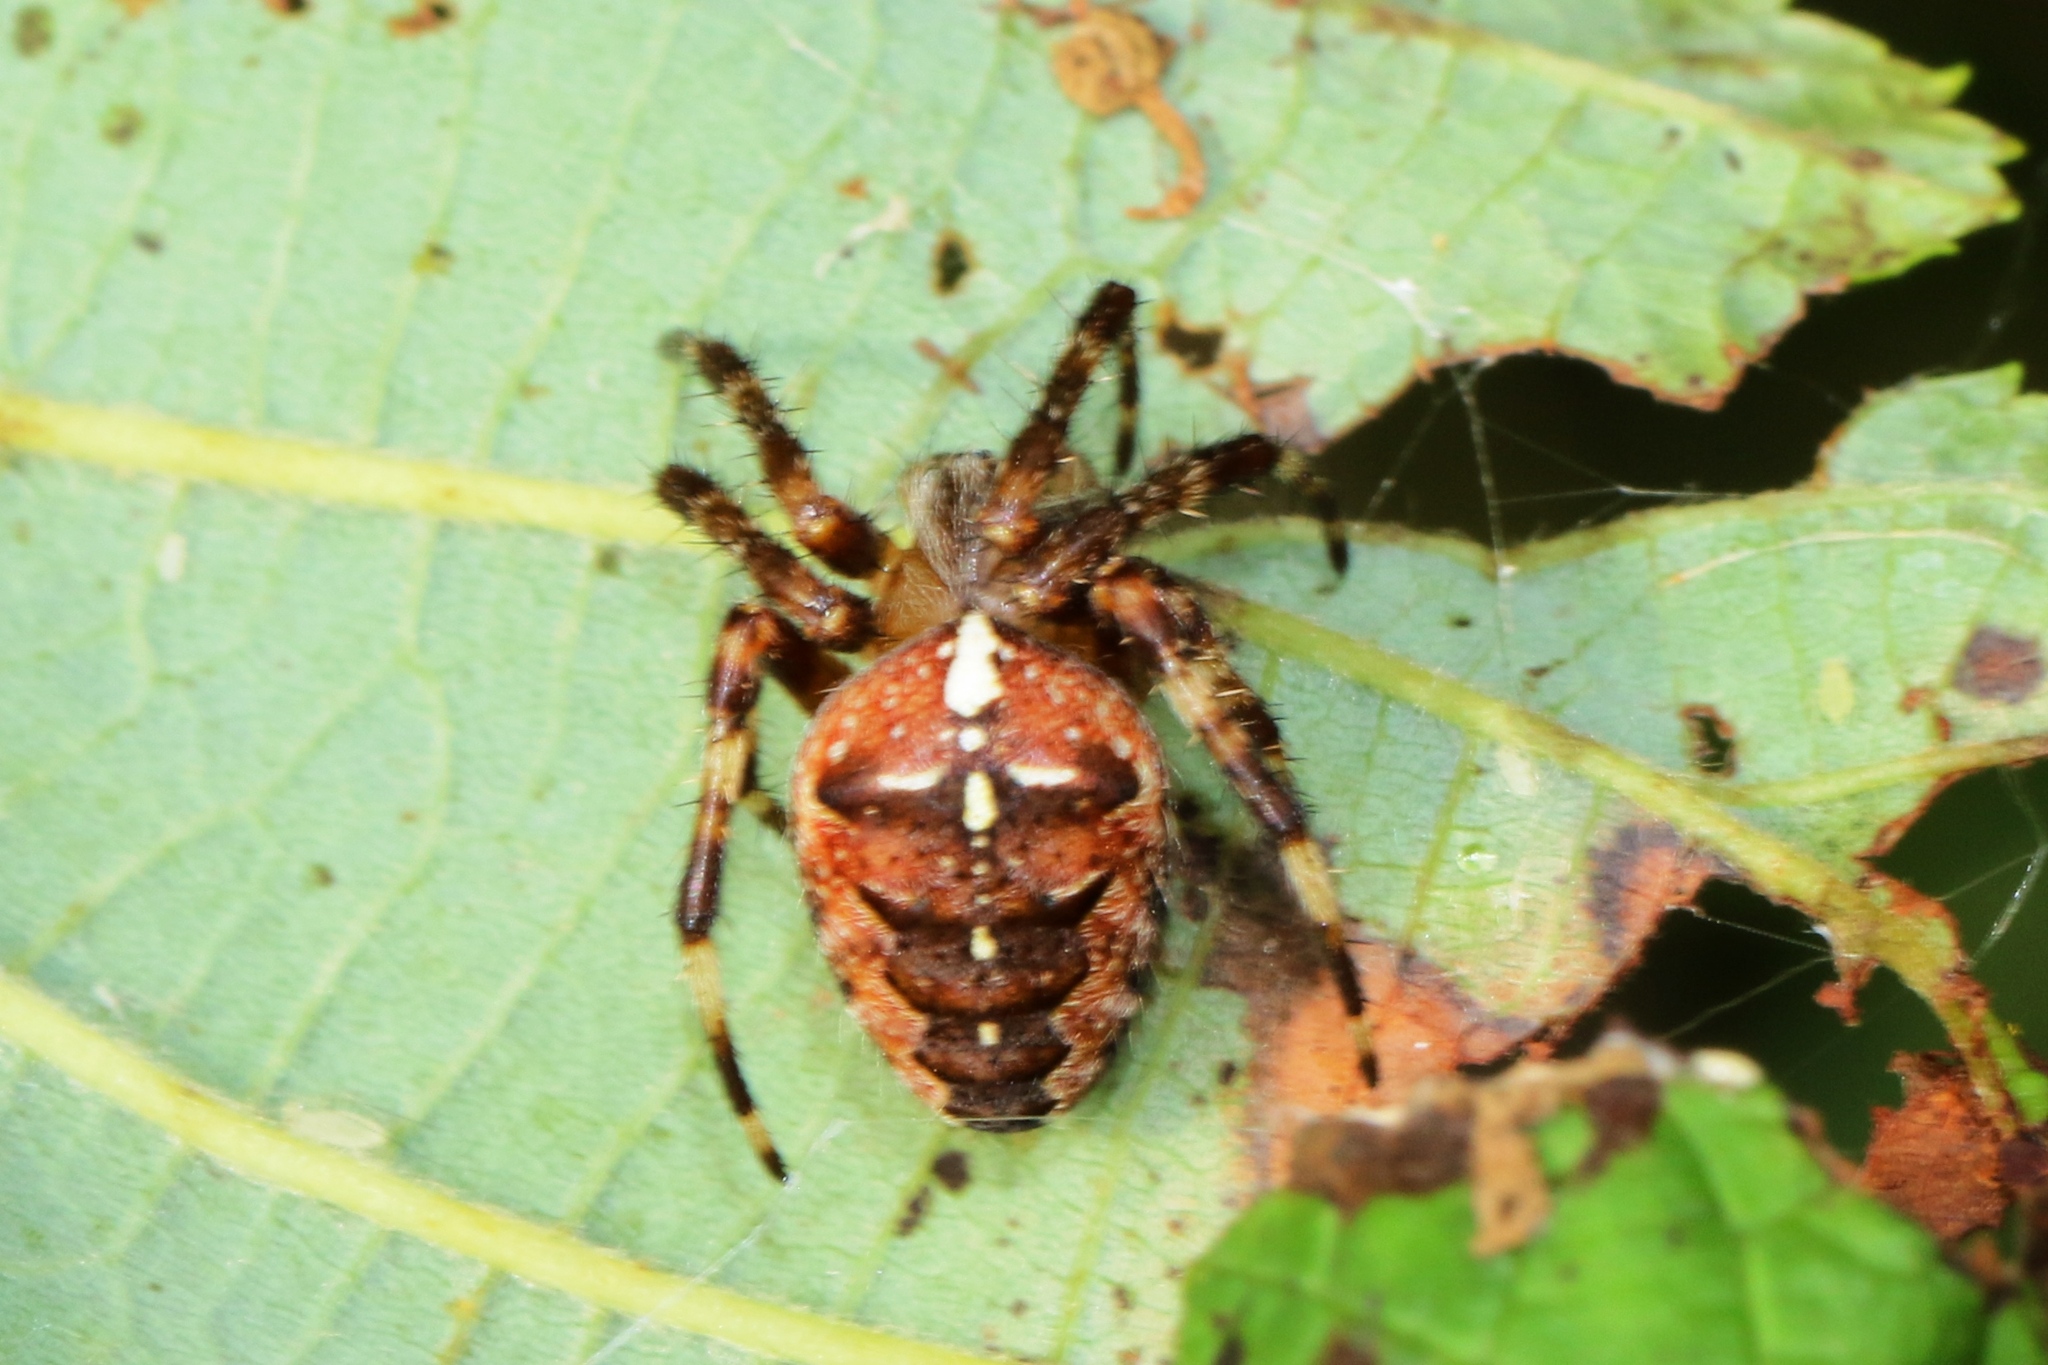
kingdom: Animalia
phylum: Arthropoda
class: Arachnida
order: Araneae
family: Araneidae
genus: Araneus
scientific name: Araneus diadematus
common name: Cross orbweaver
